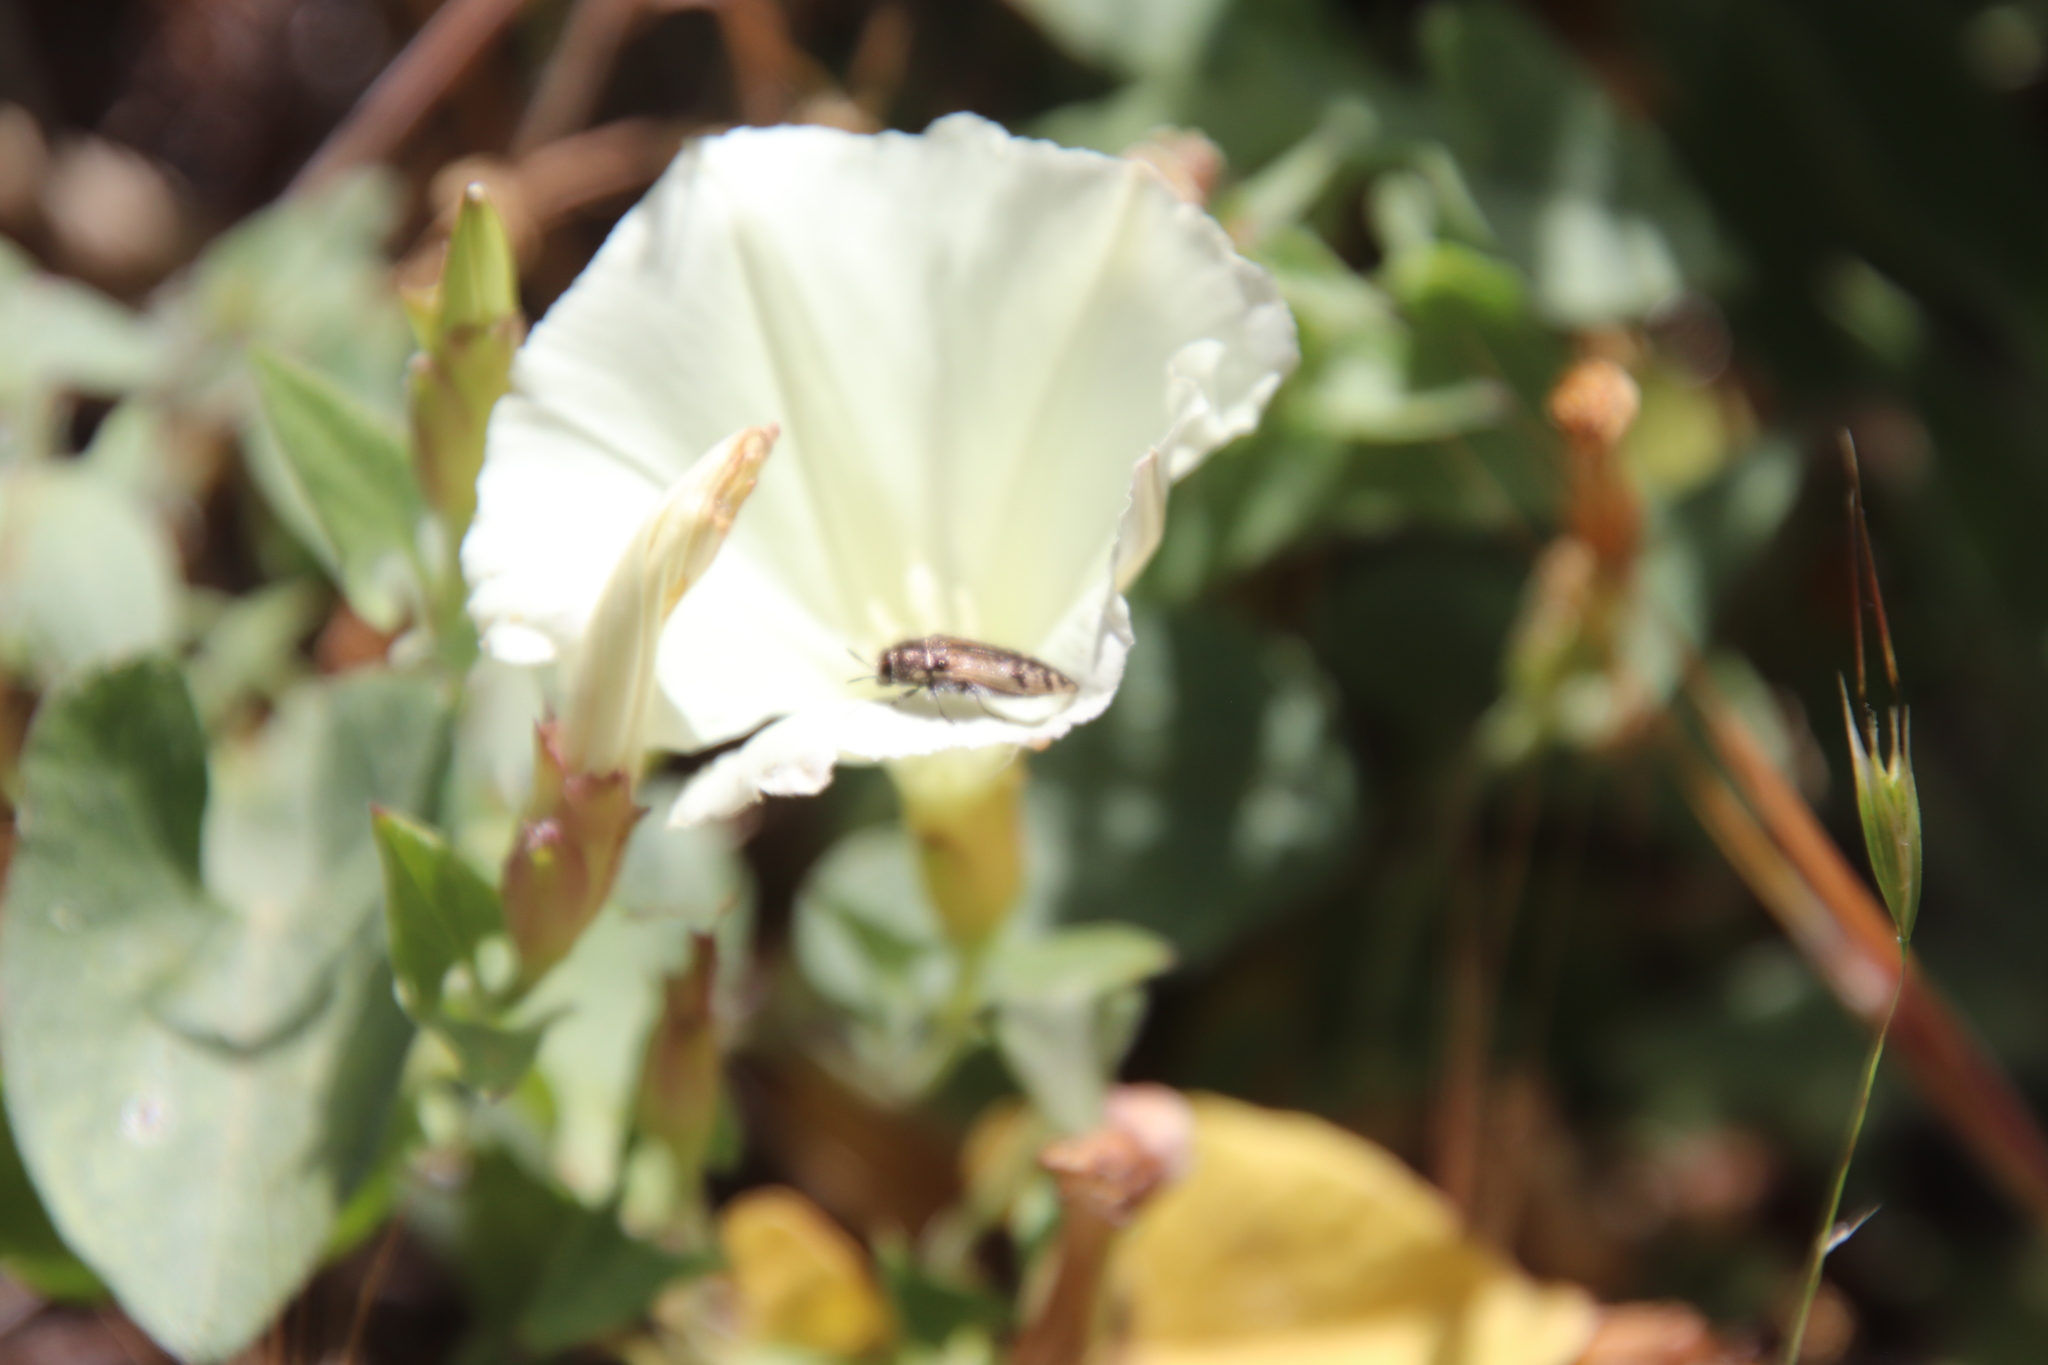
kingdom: Animalia
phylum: Arthropoda
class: Insecta
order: Coleoptera
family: Buprestidae
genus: Acmaeodera
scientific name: Acmaeodera hepburnii
